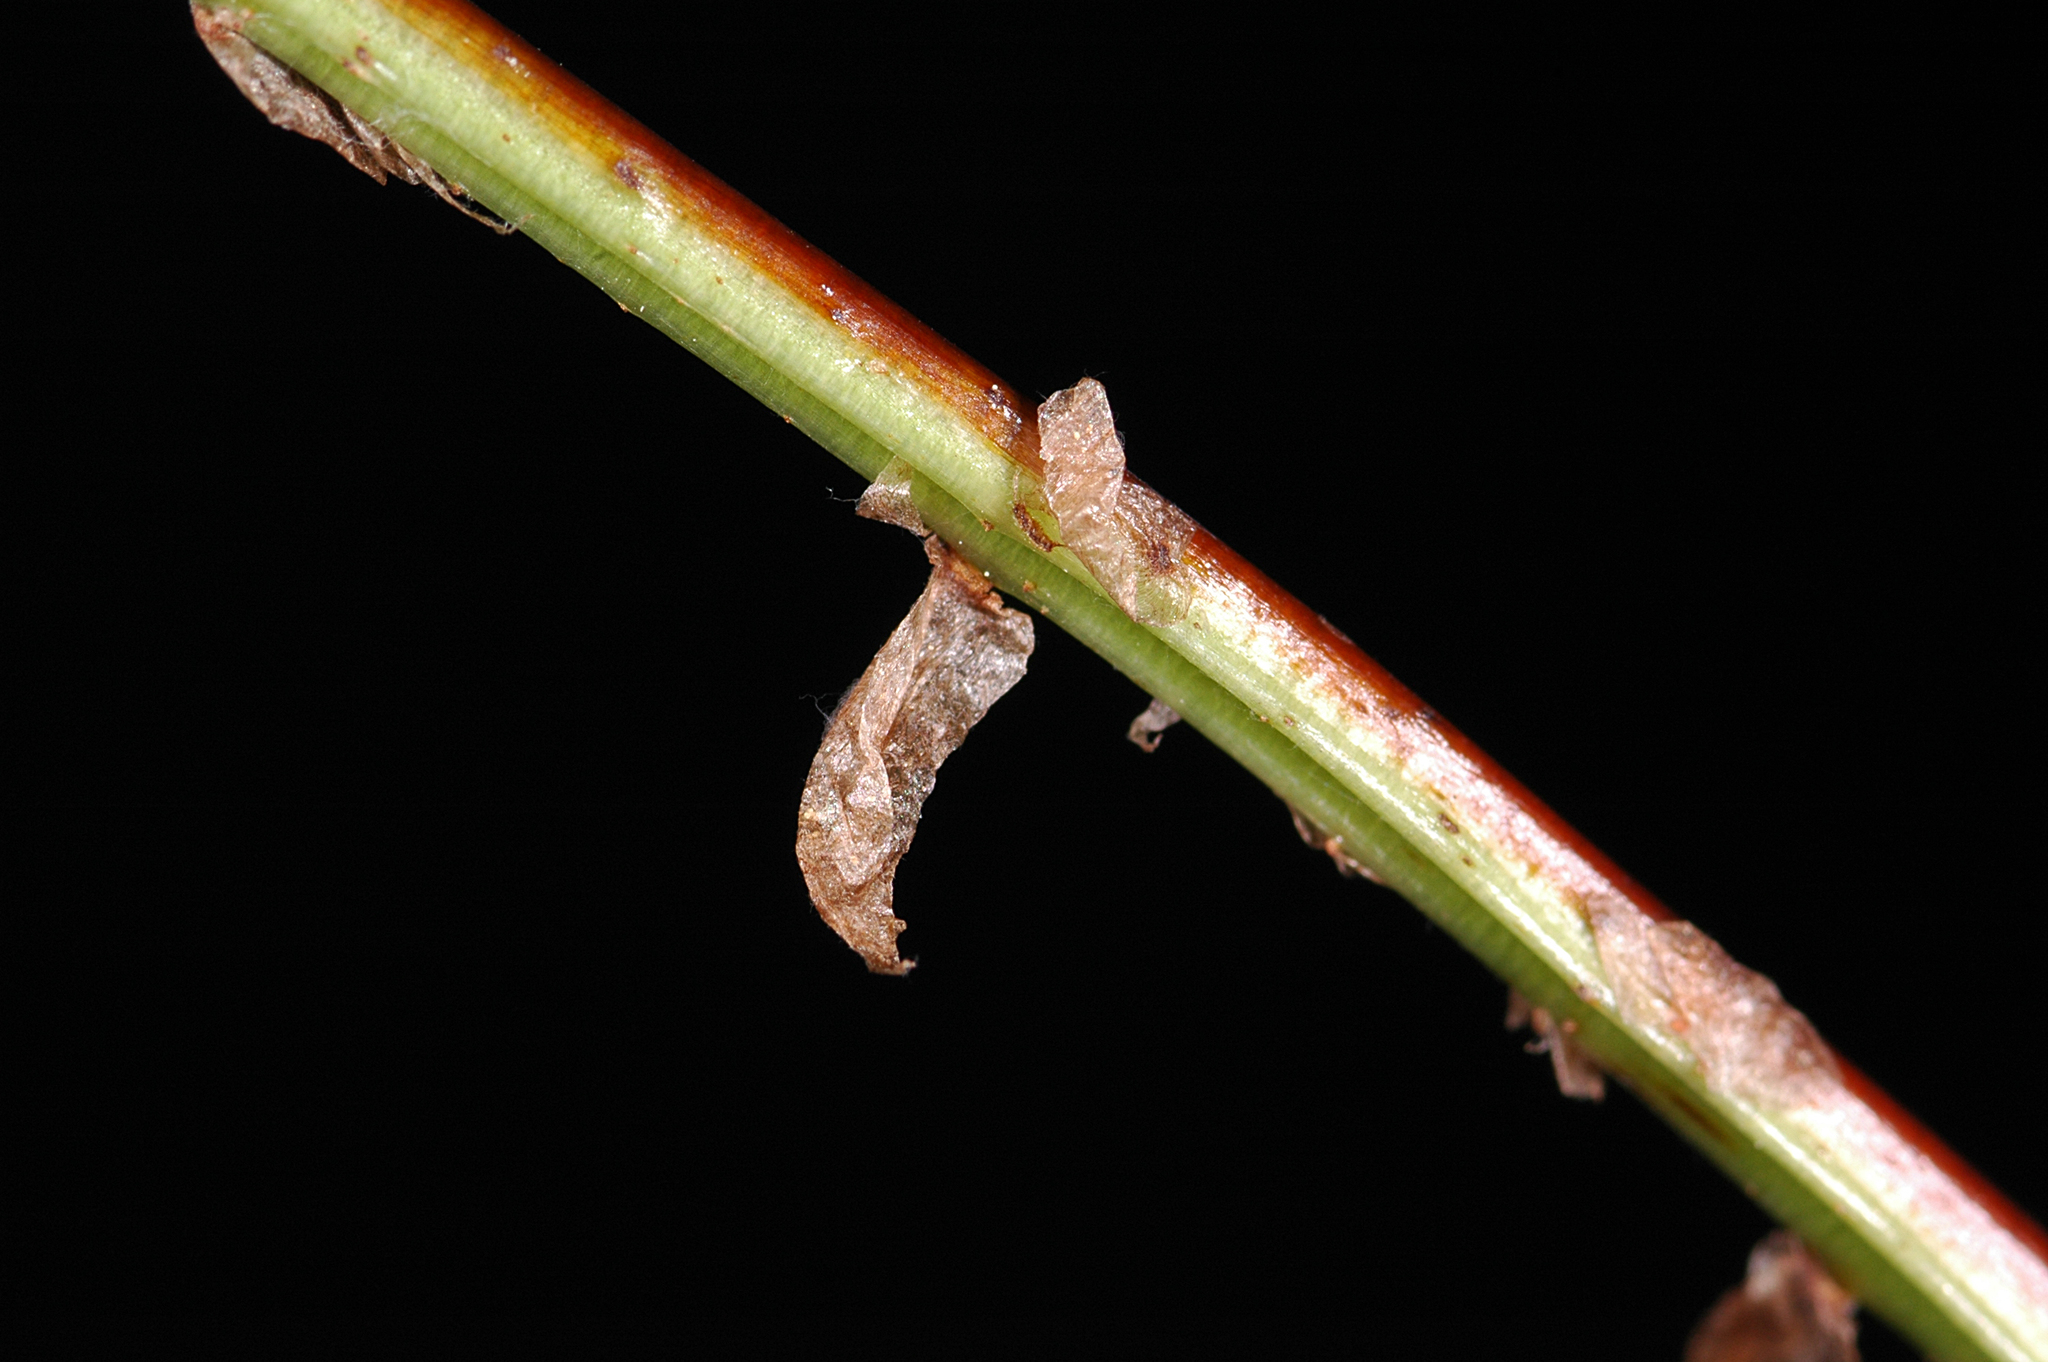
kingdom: Plantae
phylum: Tracheophyta
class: Polypodiopsida
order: Polypodiales
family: Dryopteridaceae
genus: Dryopteris
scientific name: Dryopteris carthusiana
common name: Narrow buckler-fern
